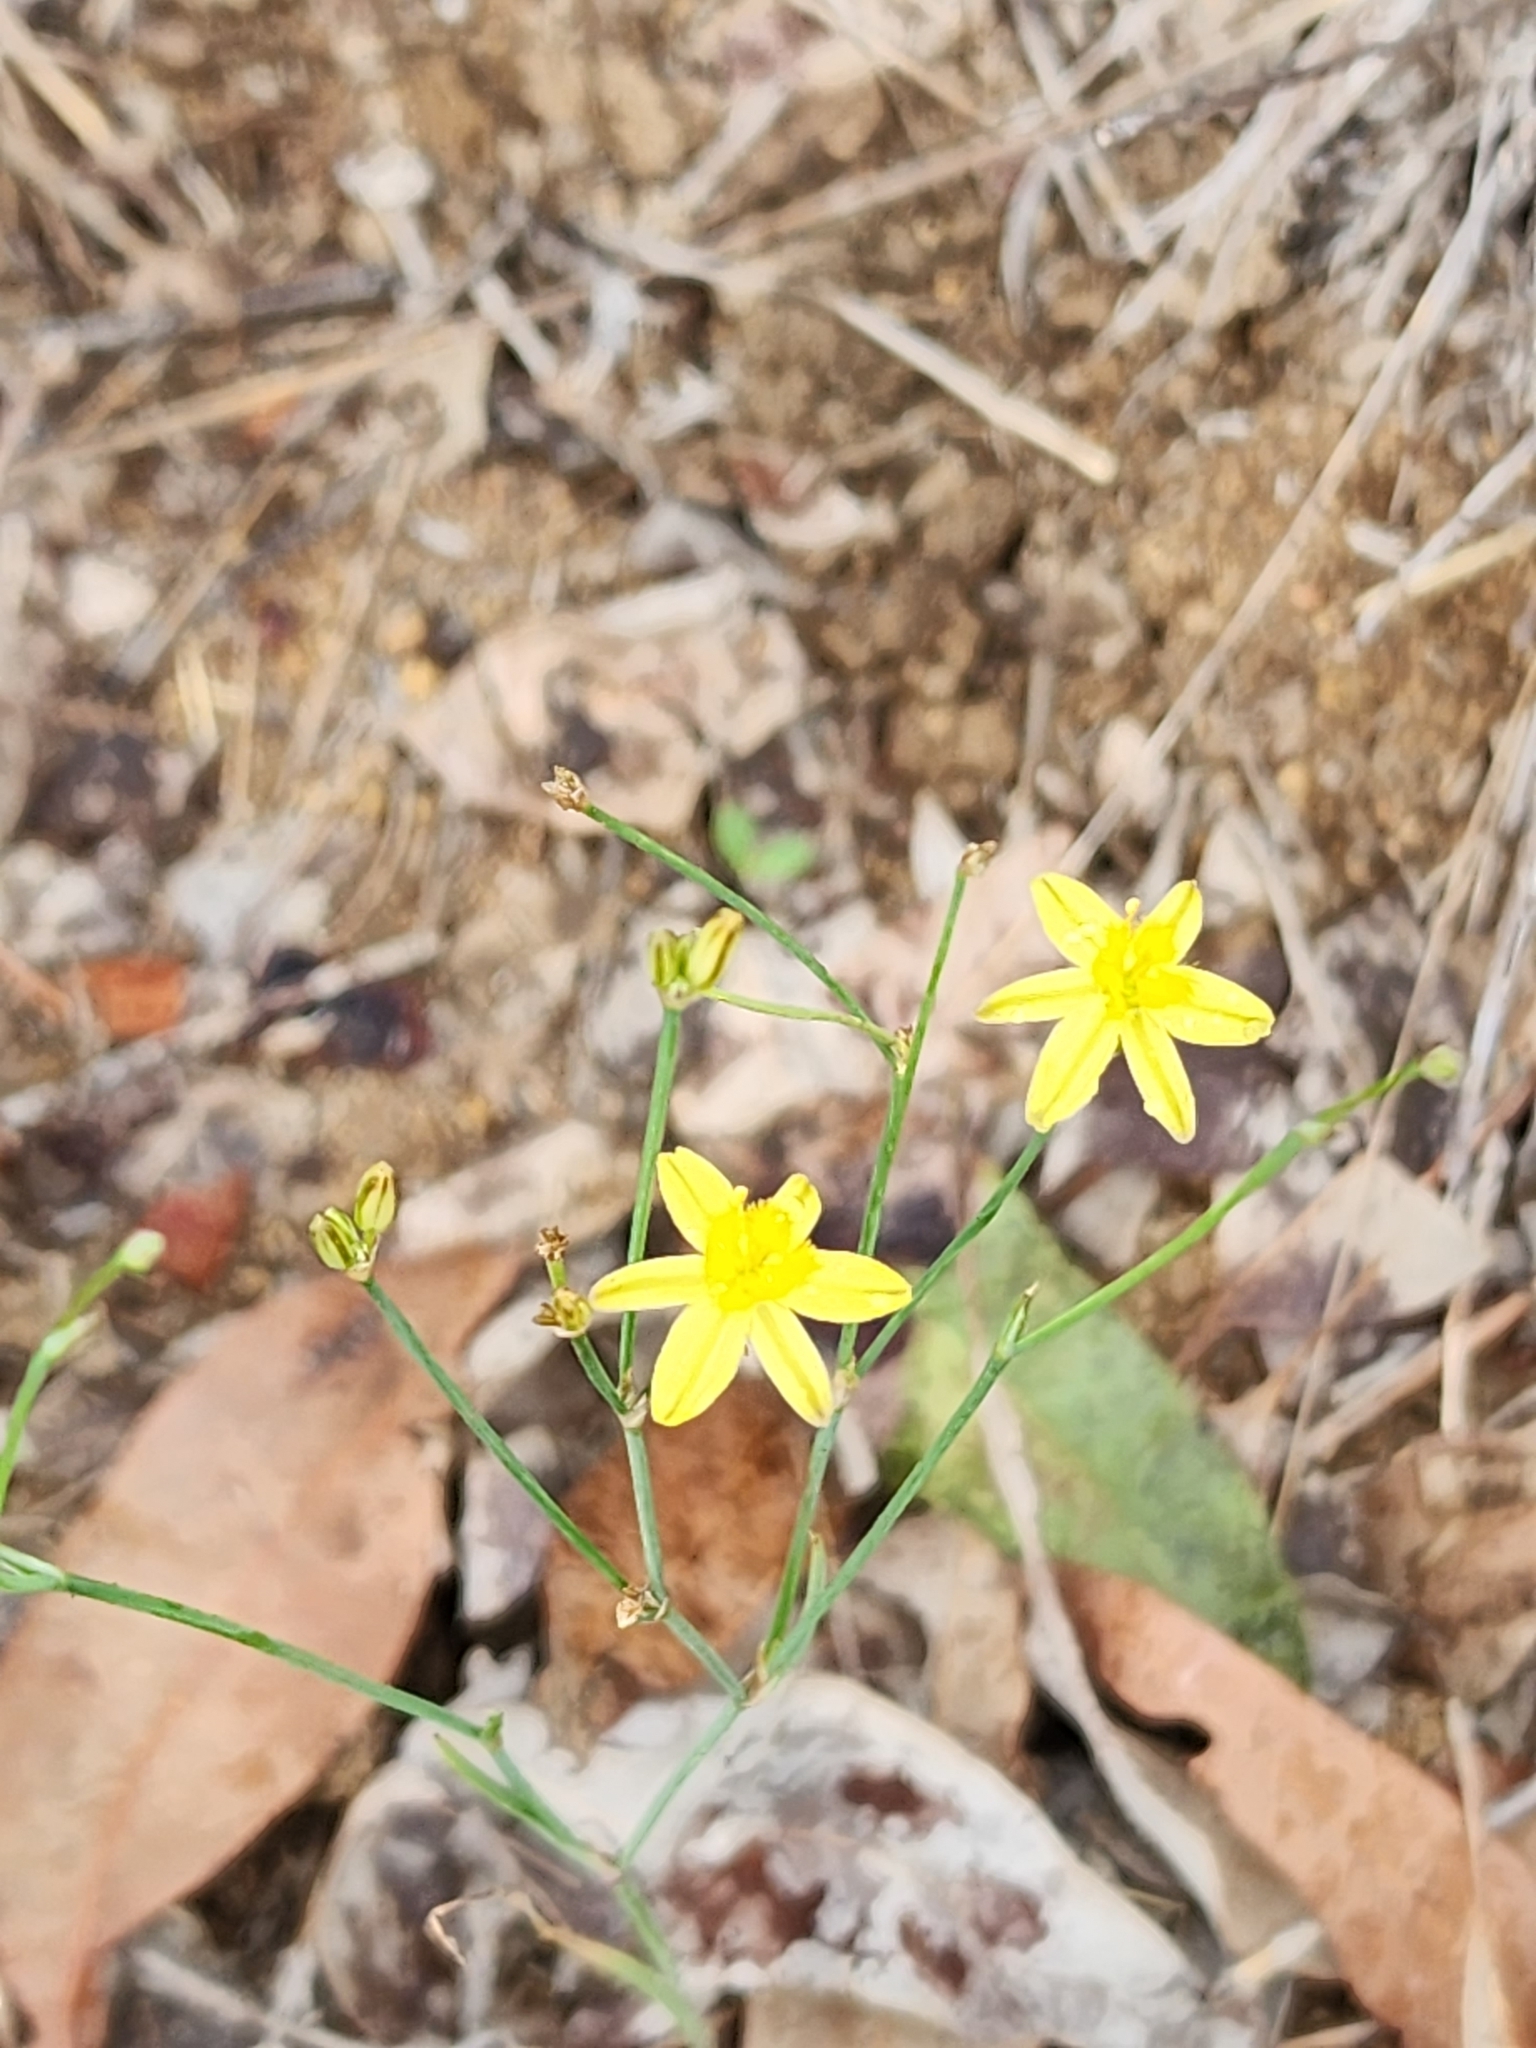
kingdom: Plantae
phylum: Tracheophyta
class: Liliopsida
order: Asparagales
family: Asphodelaceae
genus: Tricoryne
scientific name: Tricoryne elatior
